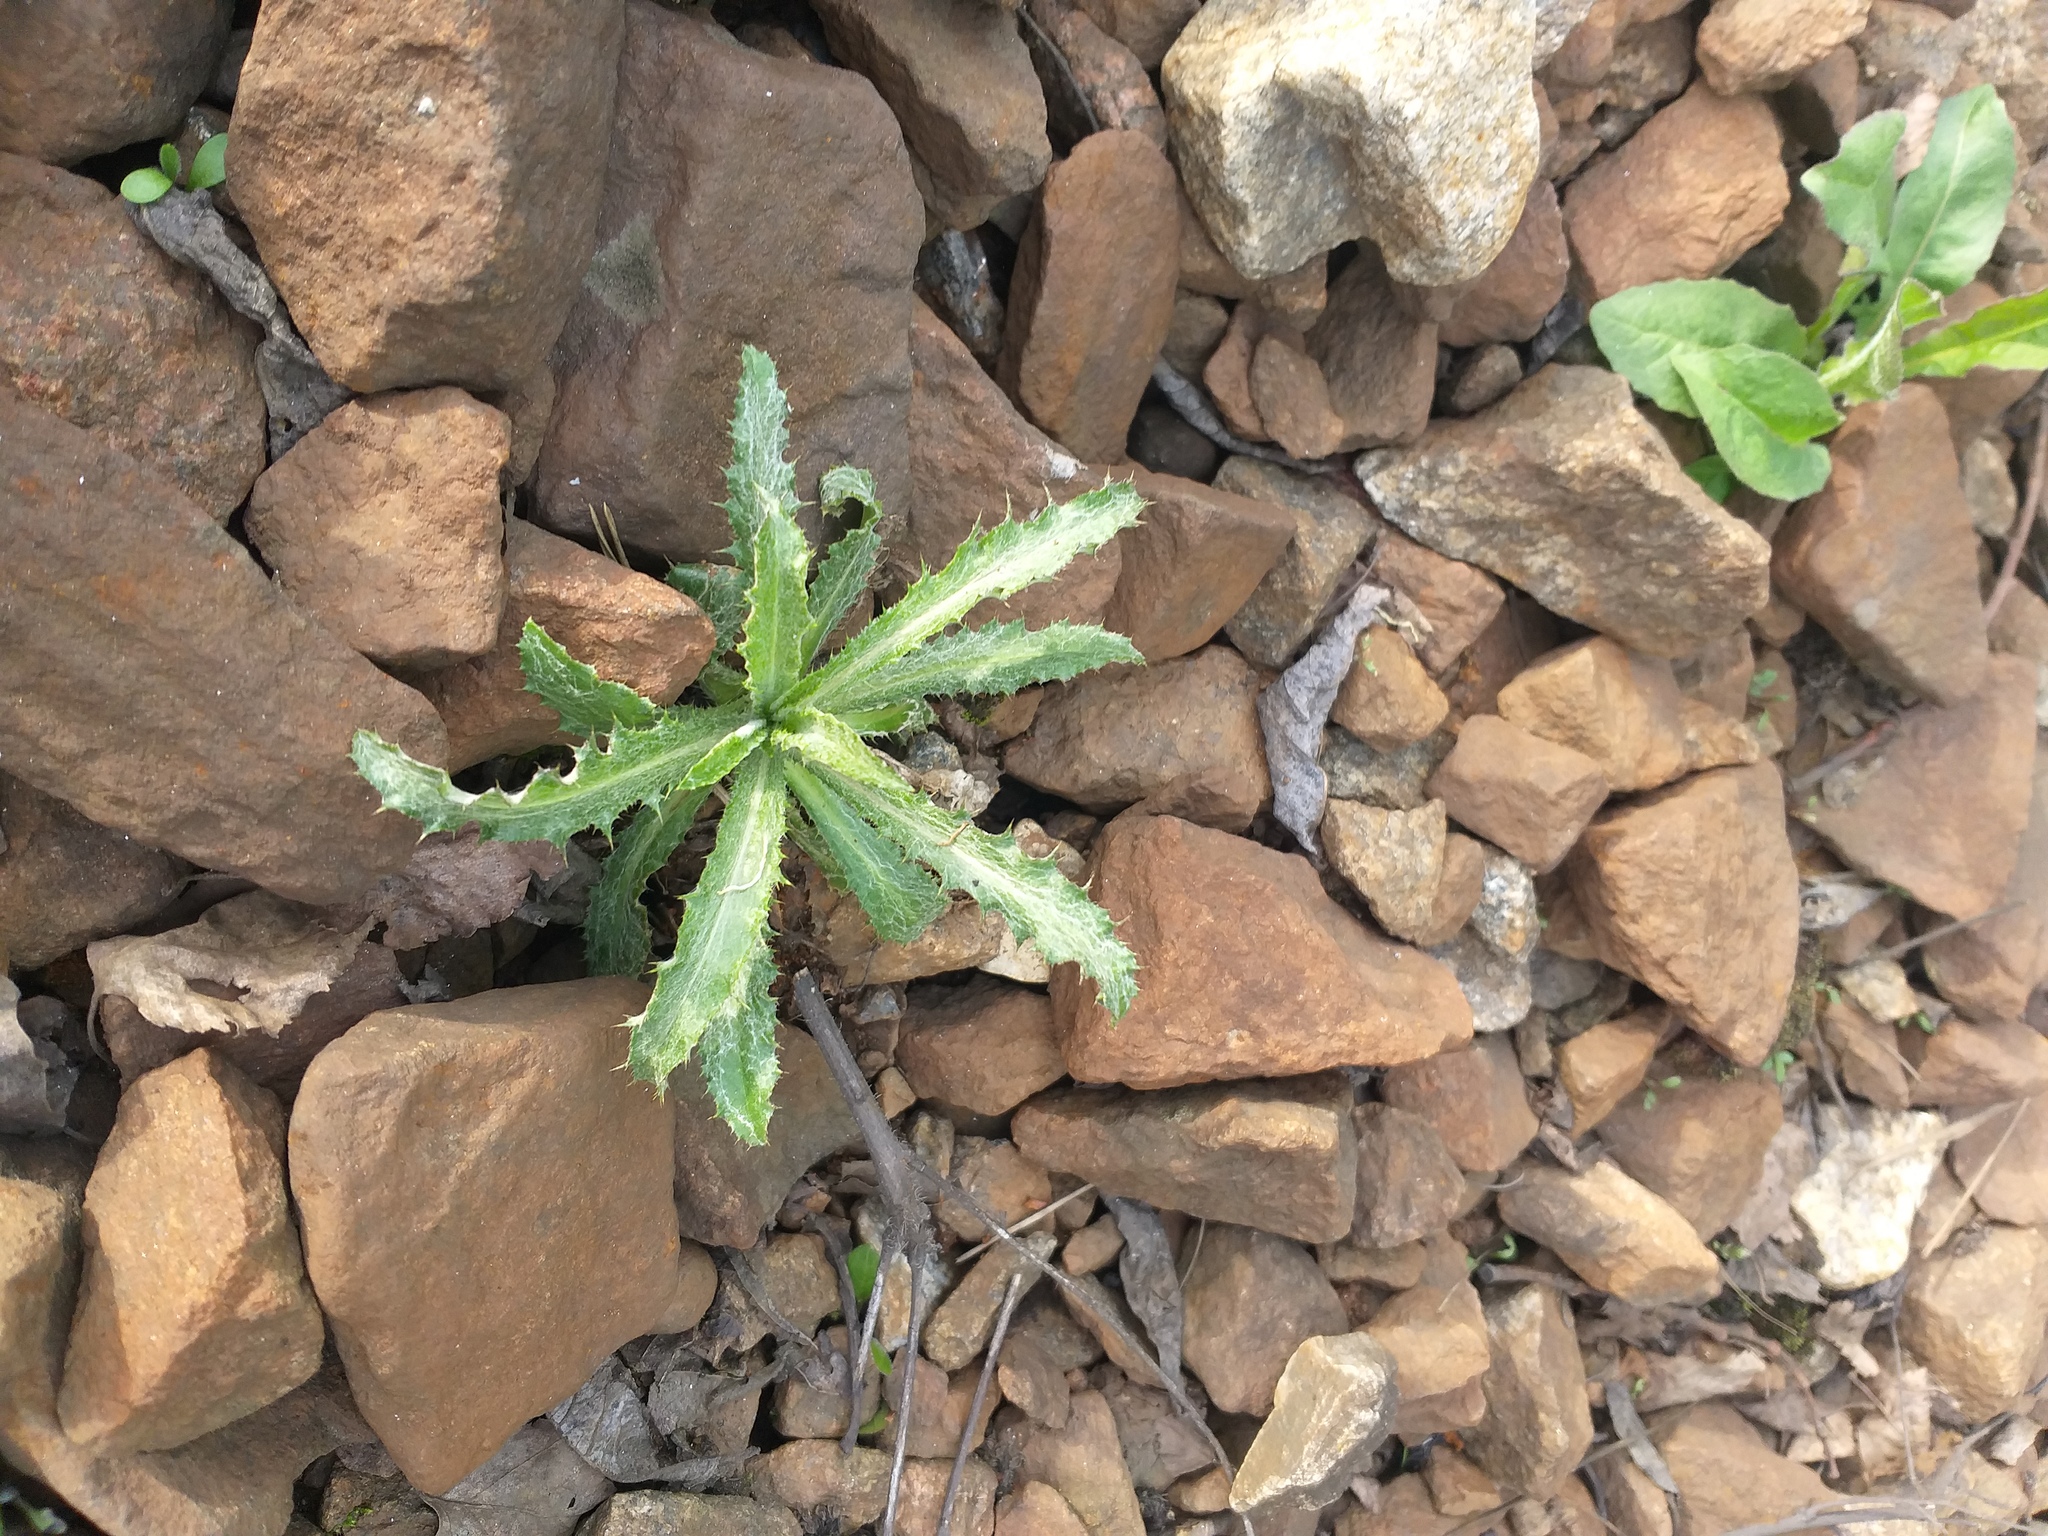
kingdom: Plantae
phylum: Tracheophyta
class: Magnoliopsida
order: Asterales
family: Asteraceae
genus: Carlina
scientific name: Carlina biebersteinii
